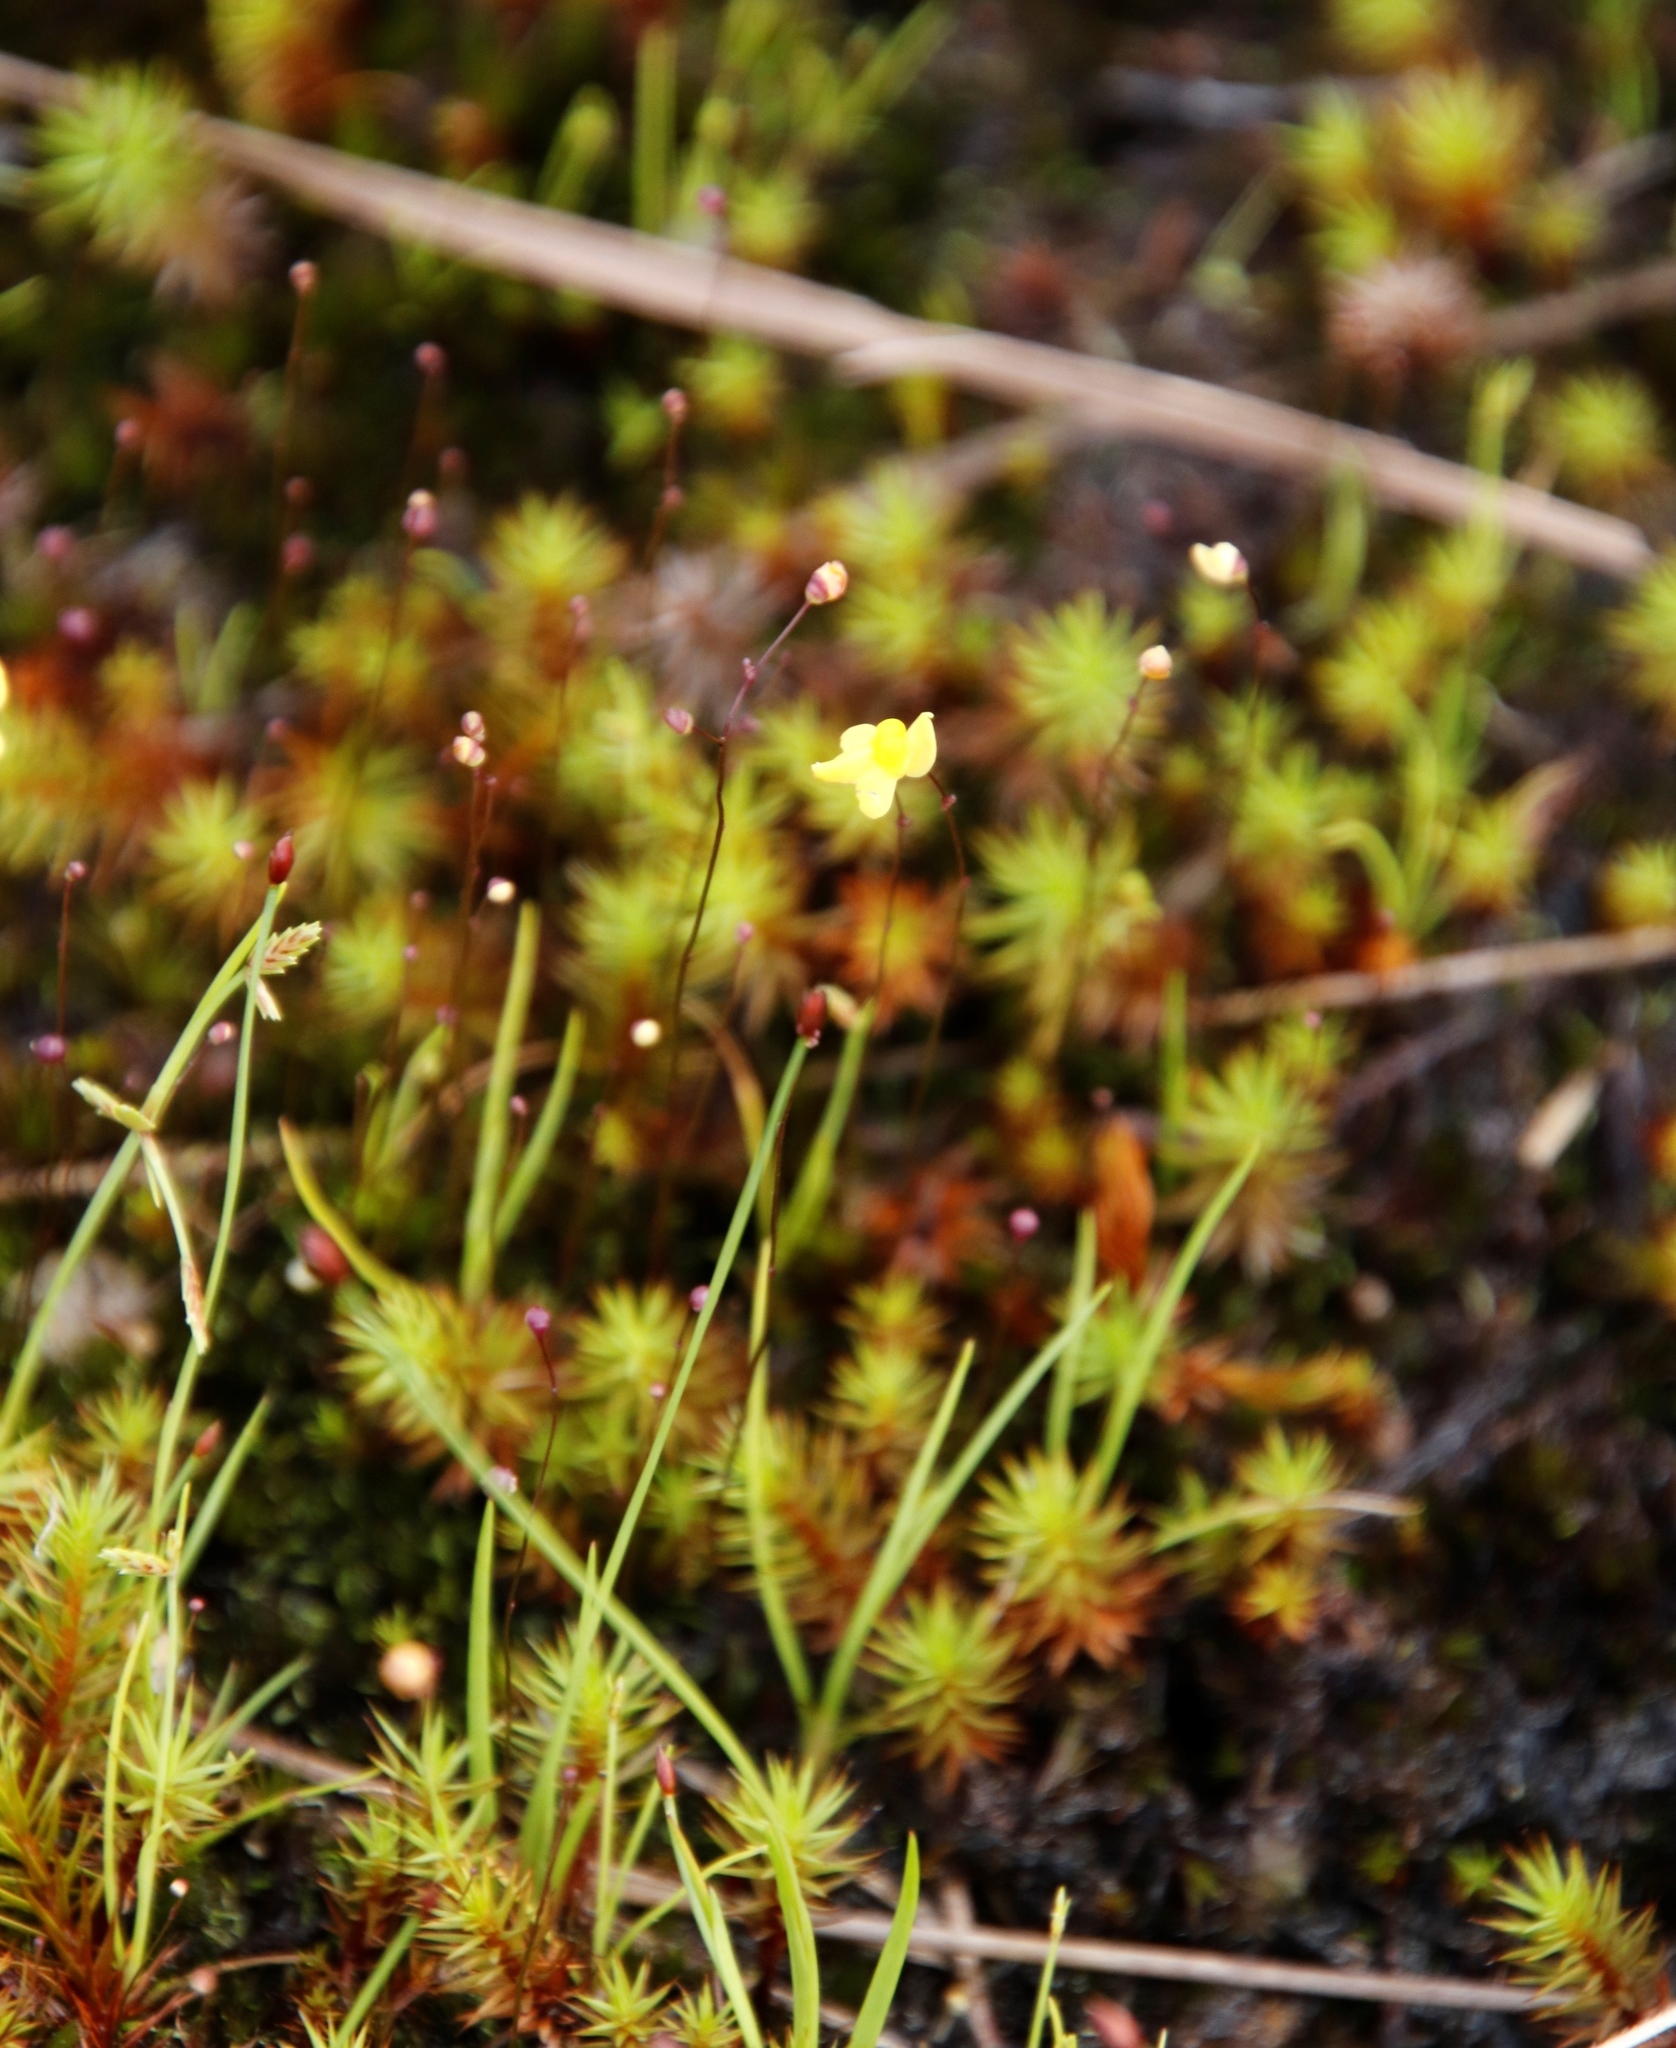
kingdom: Plantae
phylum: Tracheophyta
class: Magnoliopsida
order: Lamiales
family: Lentibulariaceae
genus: Utricularia
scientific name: Utricularia subulata
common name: Tiny bladderwort
